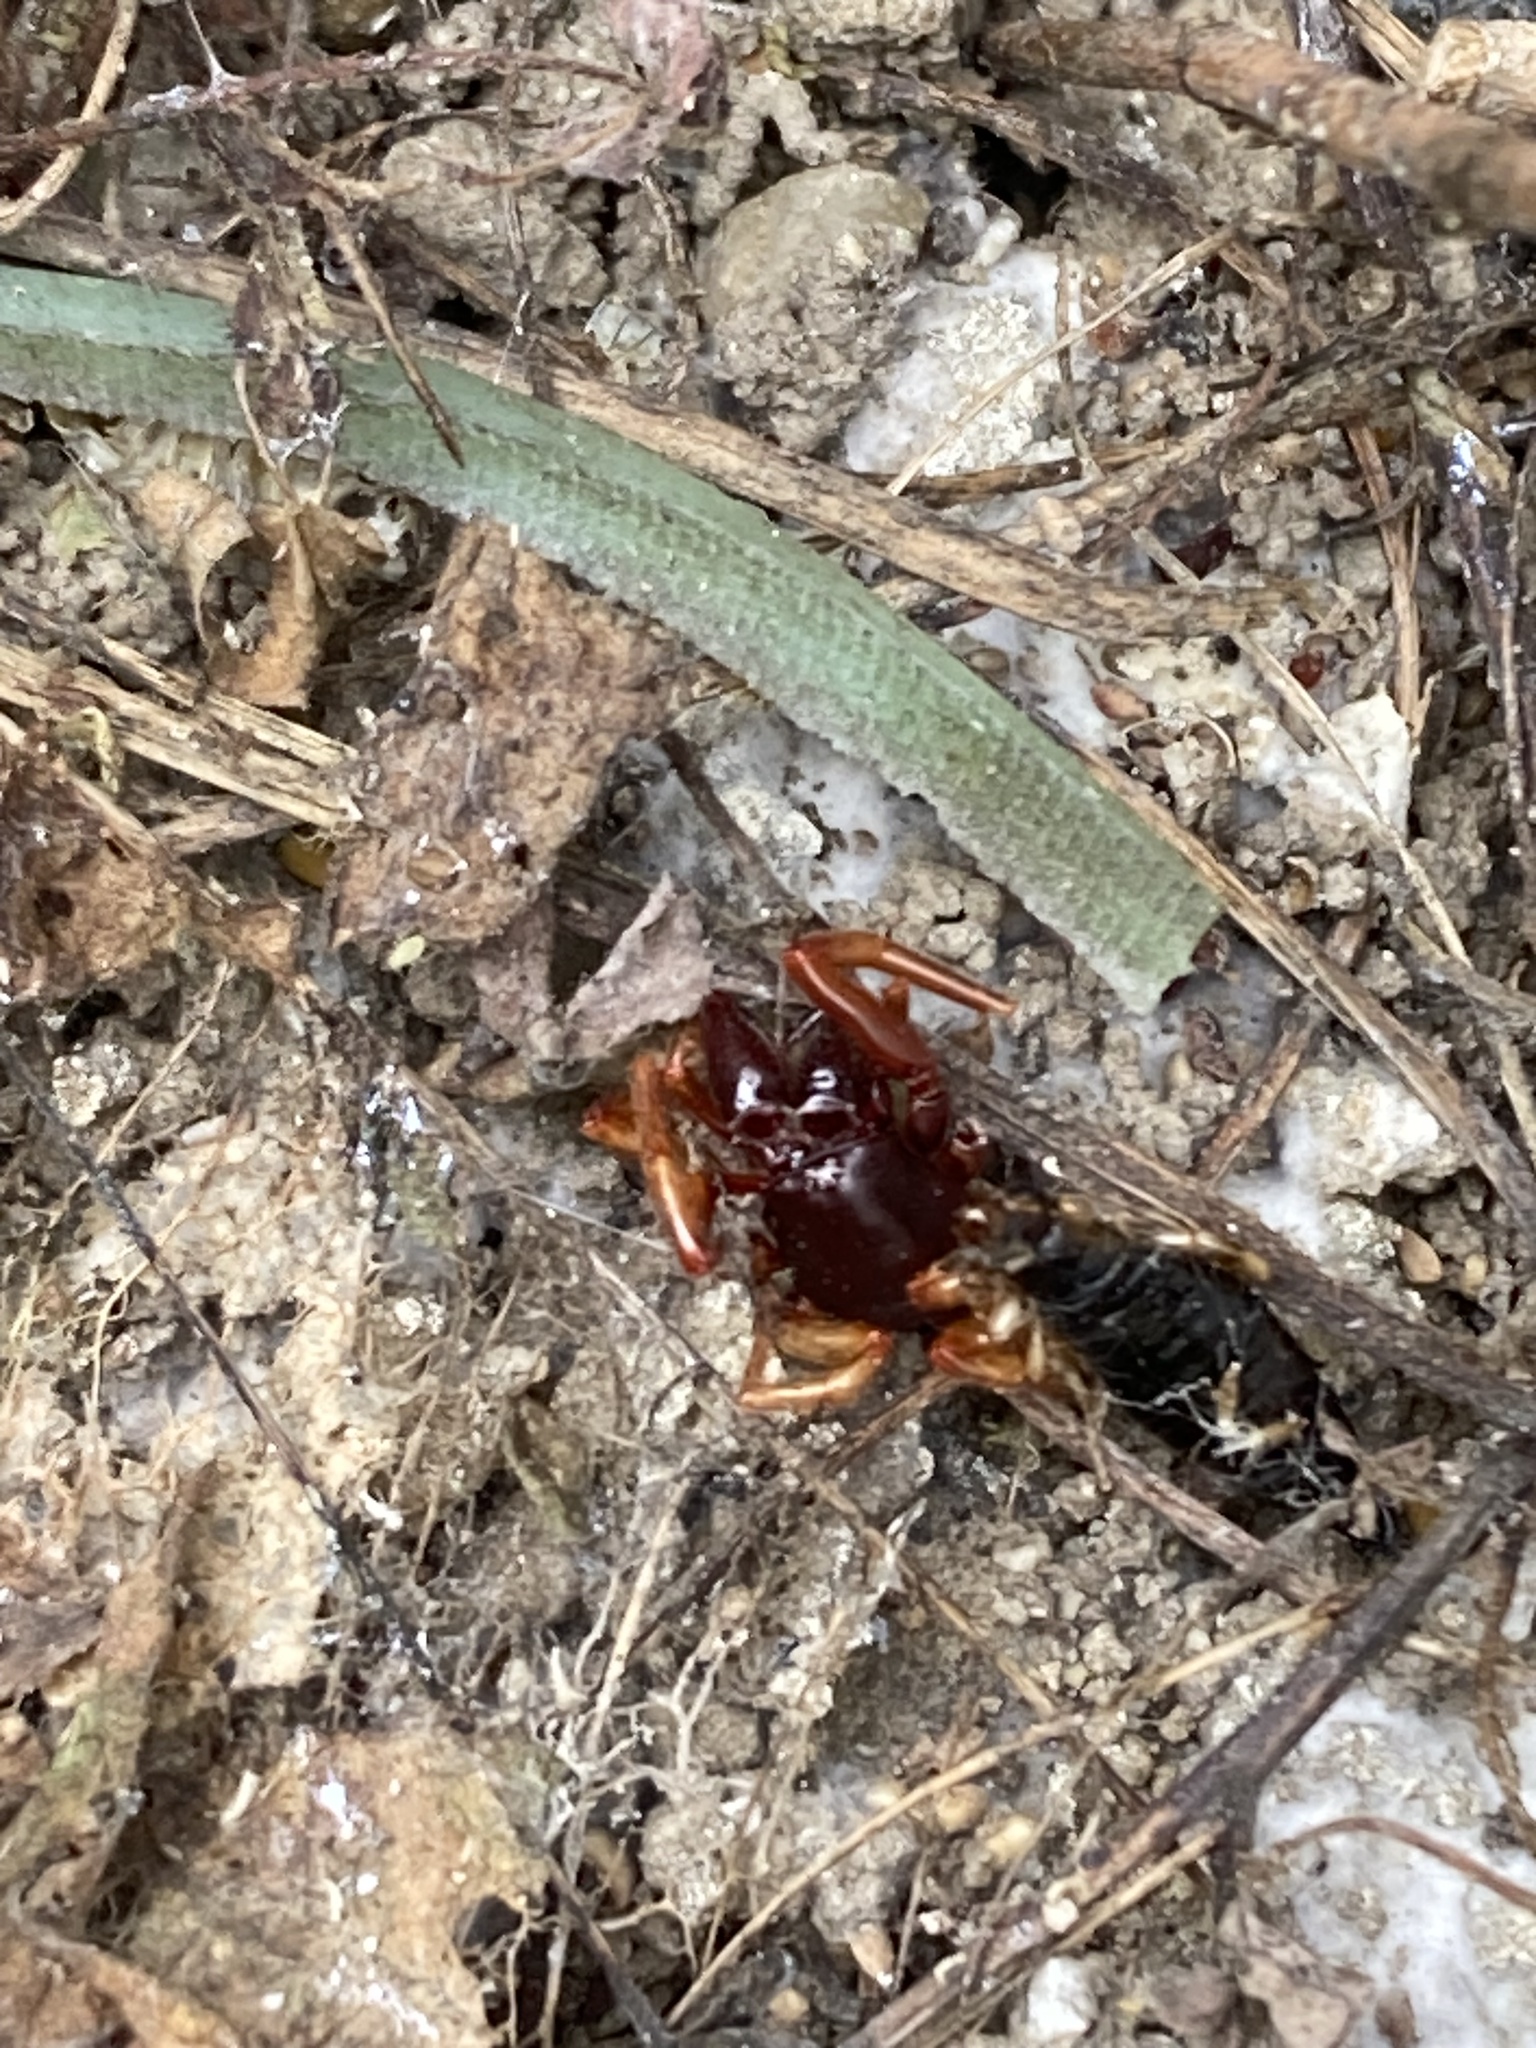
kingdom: Animalia
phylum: Arthropoda
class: Arachnida
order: Araneae
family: Dysderidae
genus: Dysdera
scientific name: Dysdera crocata
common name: Woodlouse spider
